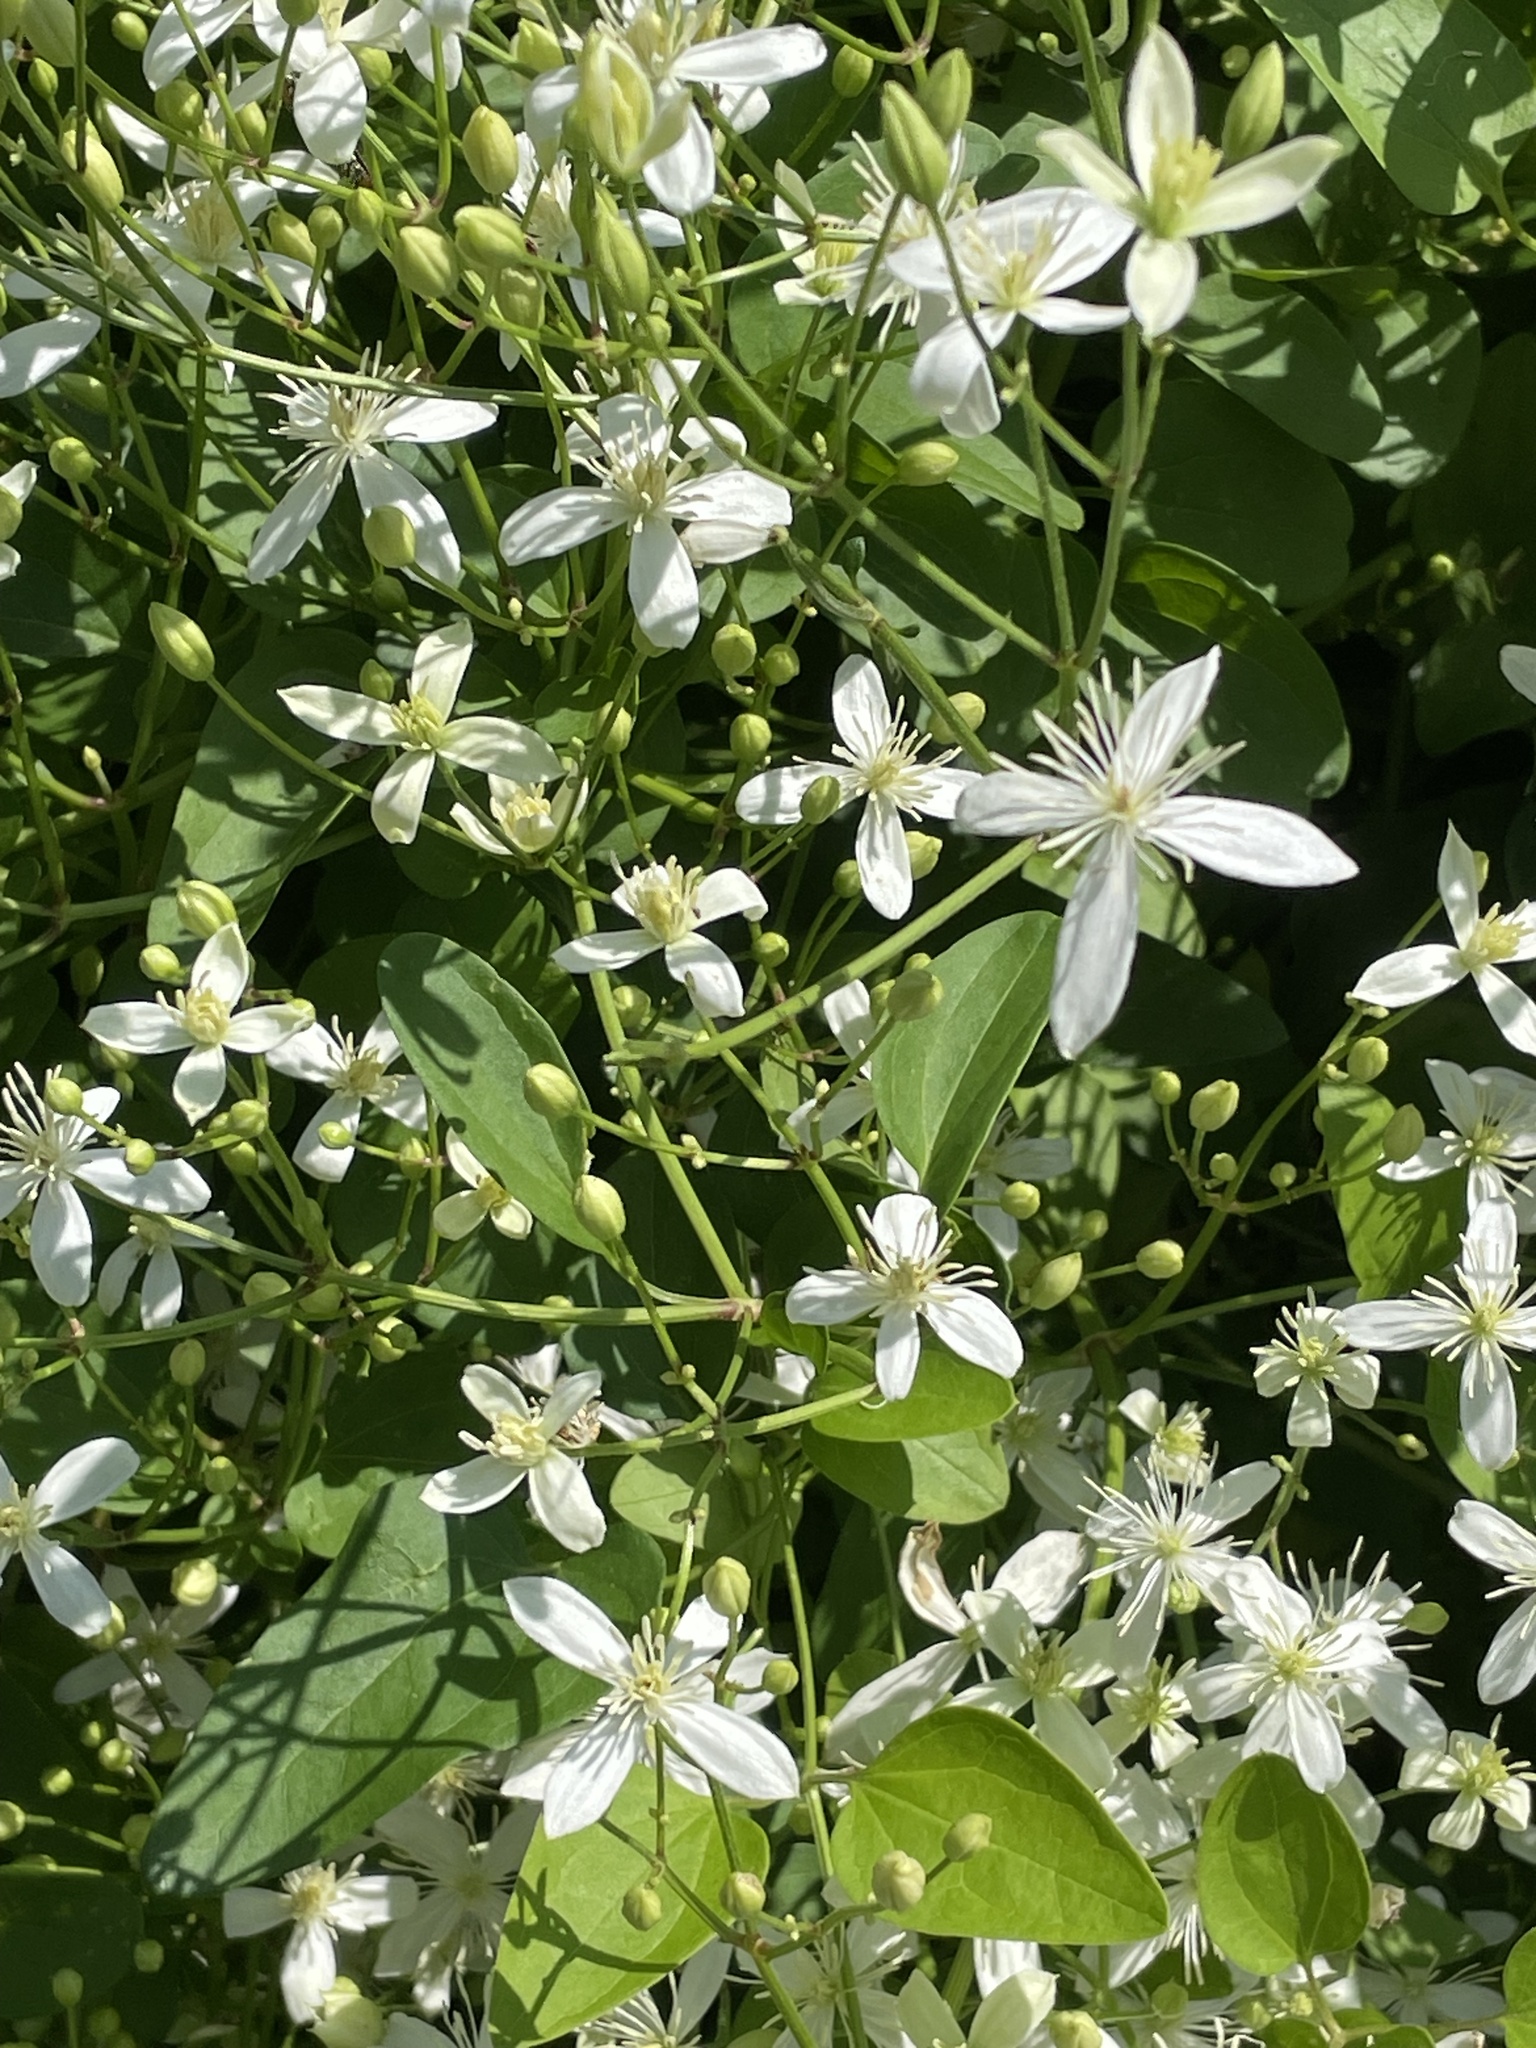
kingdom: Plantae
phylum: Tracheophyta
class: Magnoliopsida
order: Ranunculales
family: Ranunculaceae
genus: Clematis
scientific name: Clematis terniflora
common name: Sweet autumn clematis
